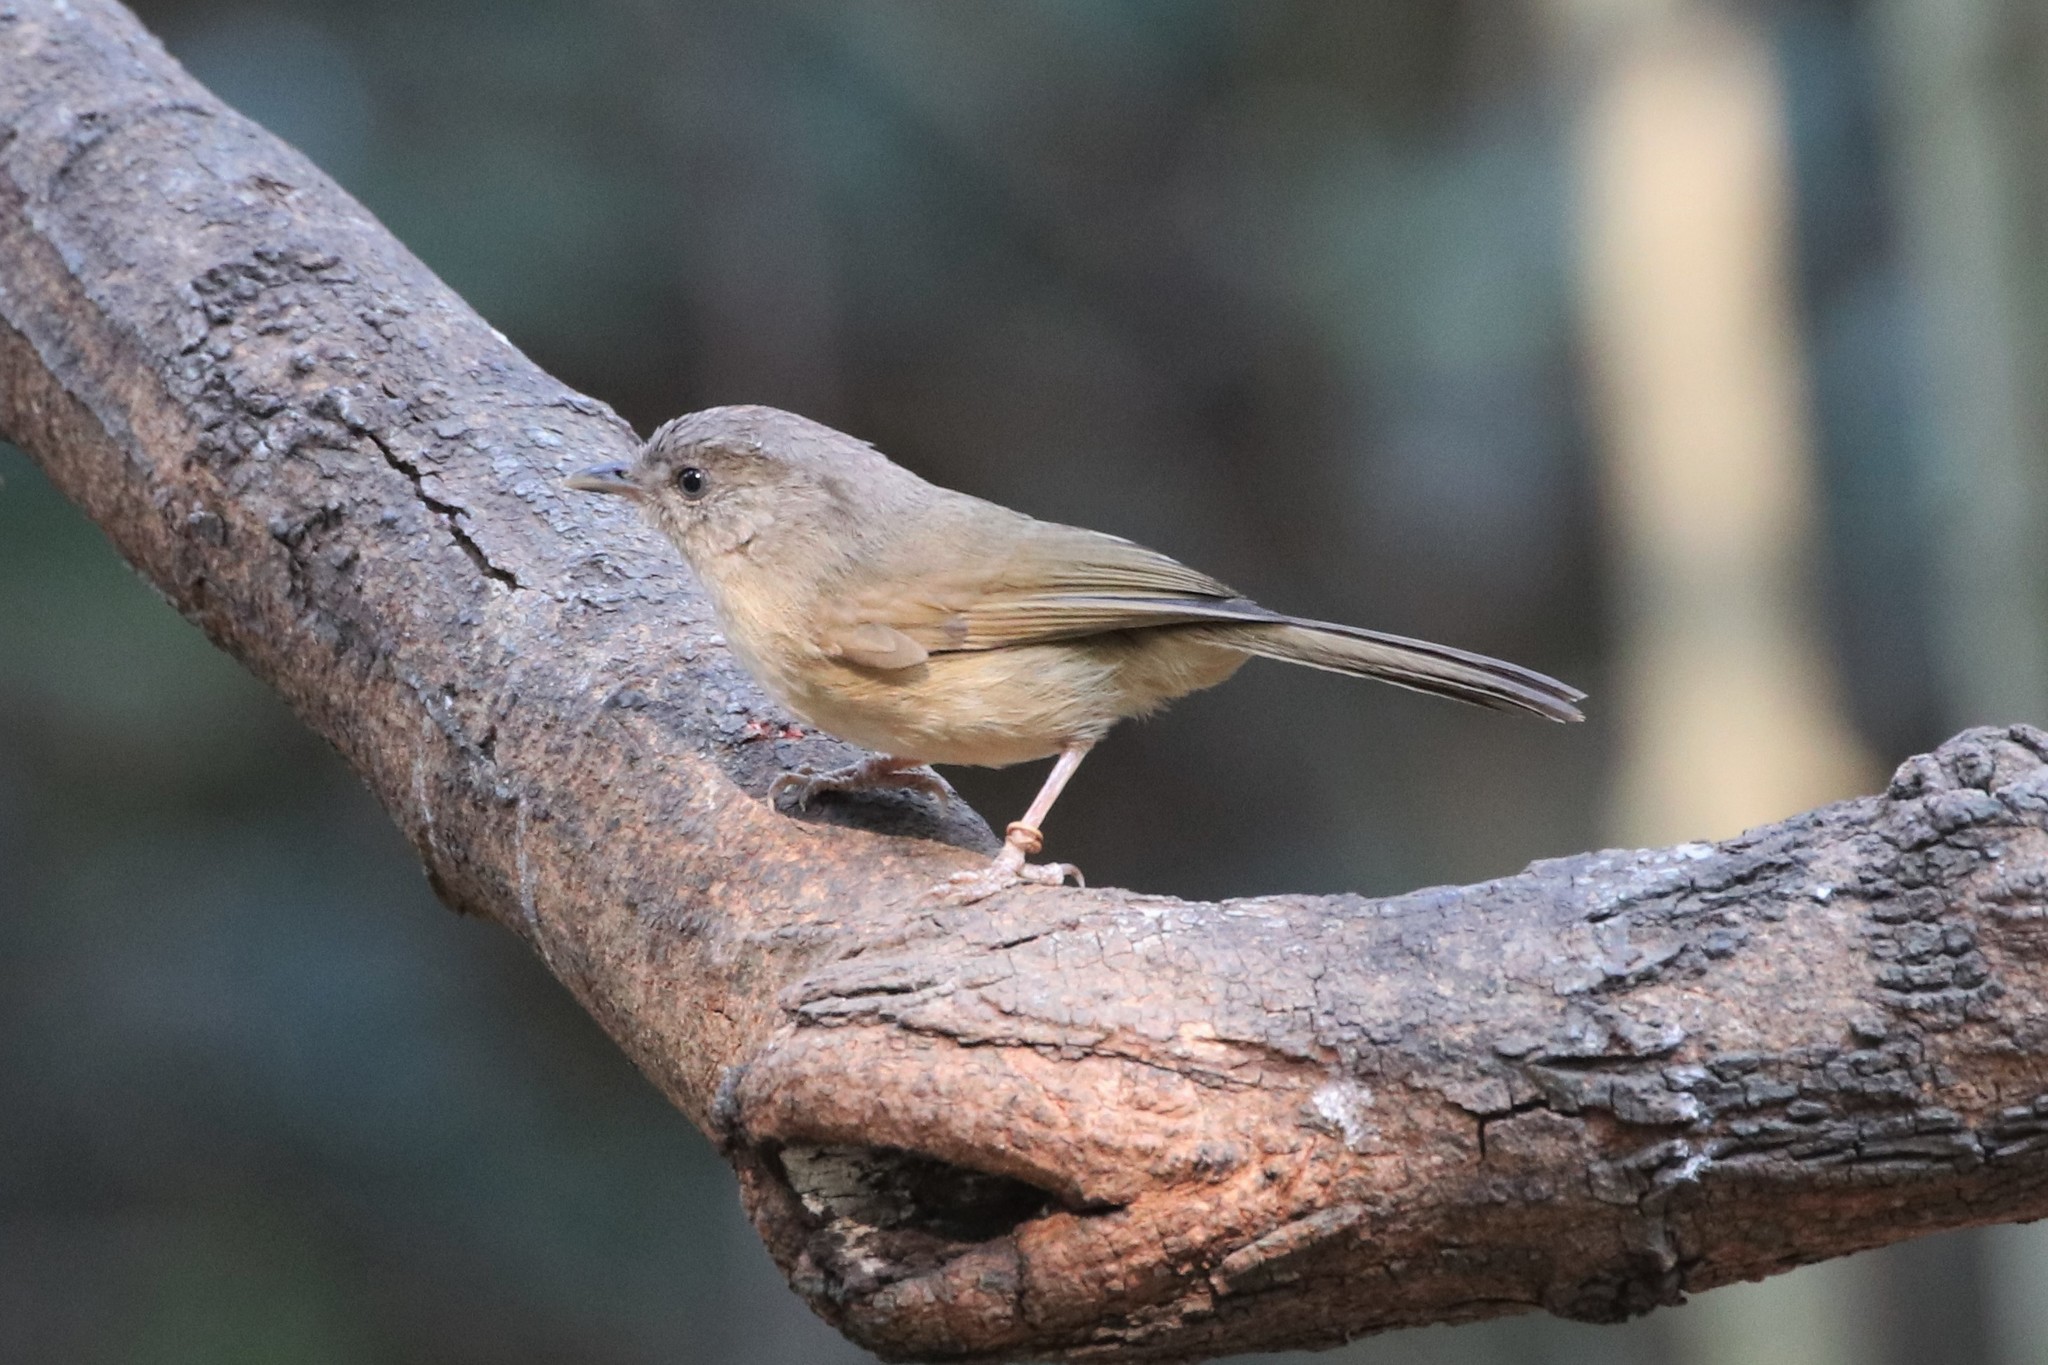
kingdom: Animalia
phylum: Chordata
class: Aves
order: Passeriformes
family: Pellorneidae
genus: Alcippe
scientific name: Alcippe poioicephala
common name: Brown-cheeked fulvetta
